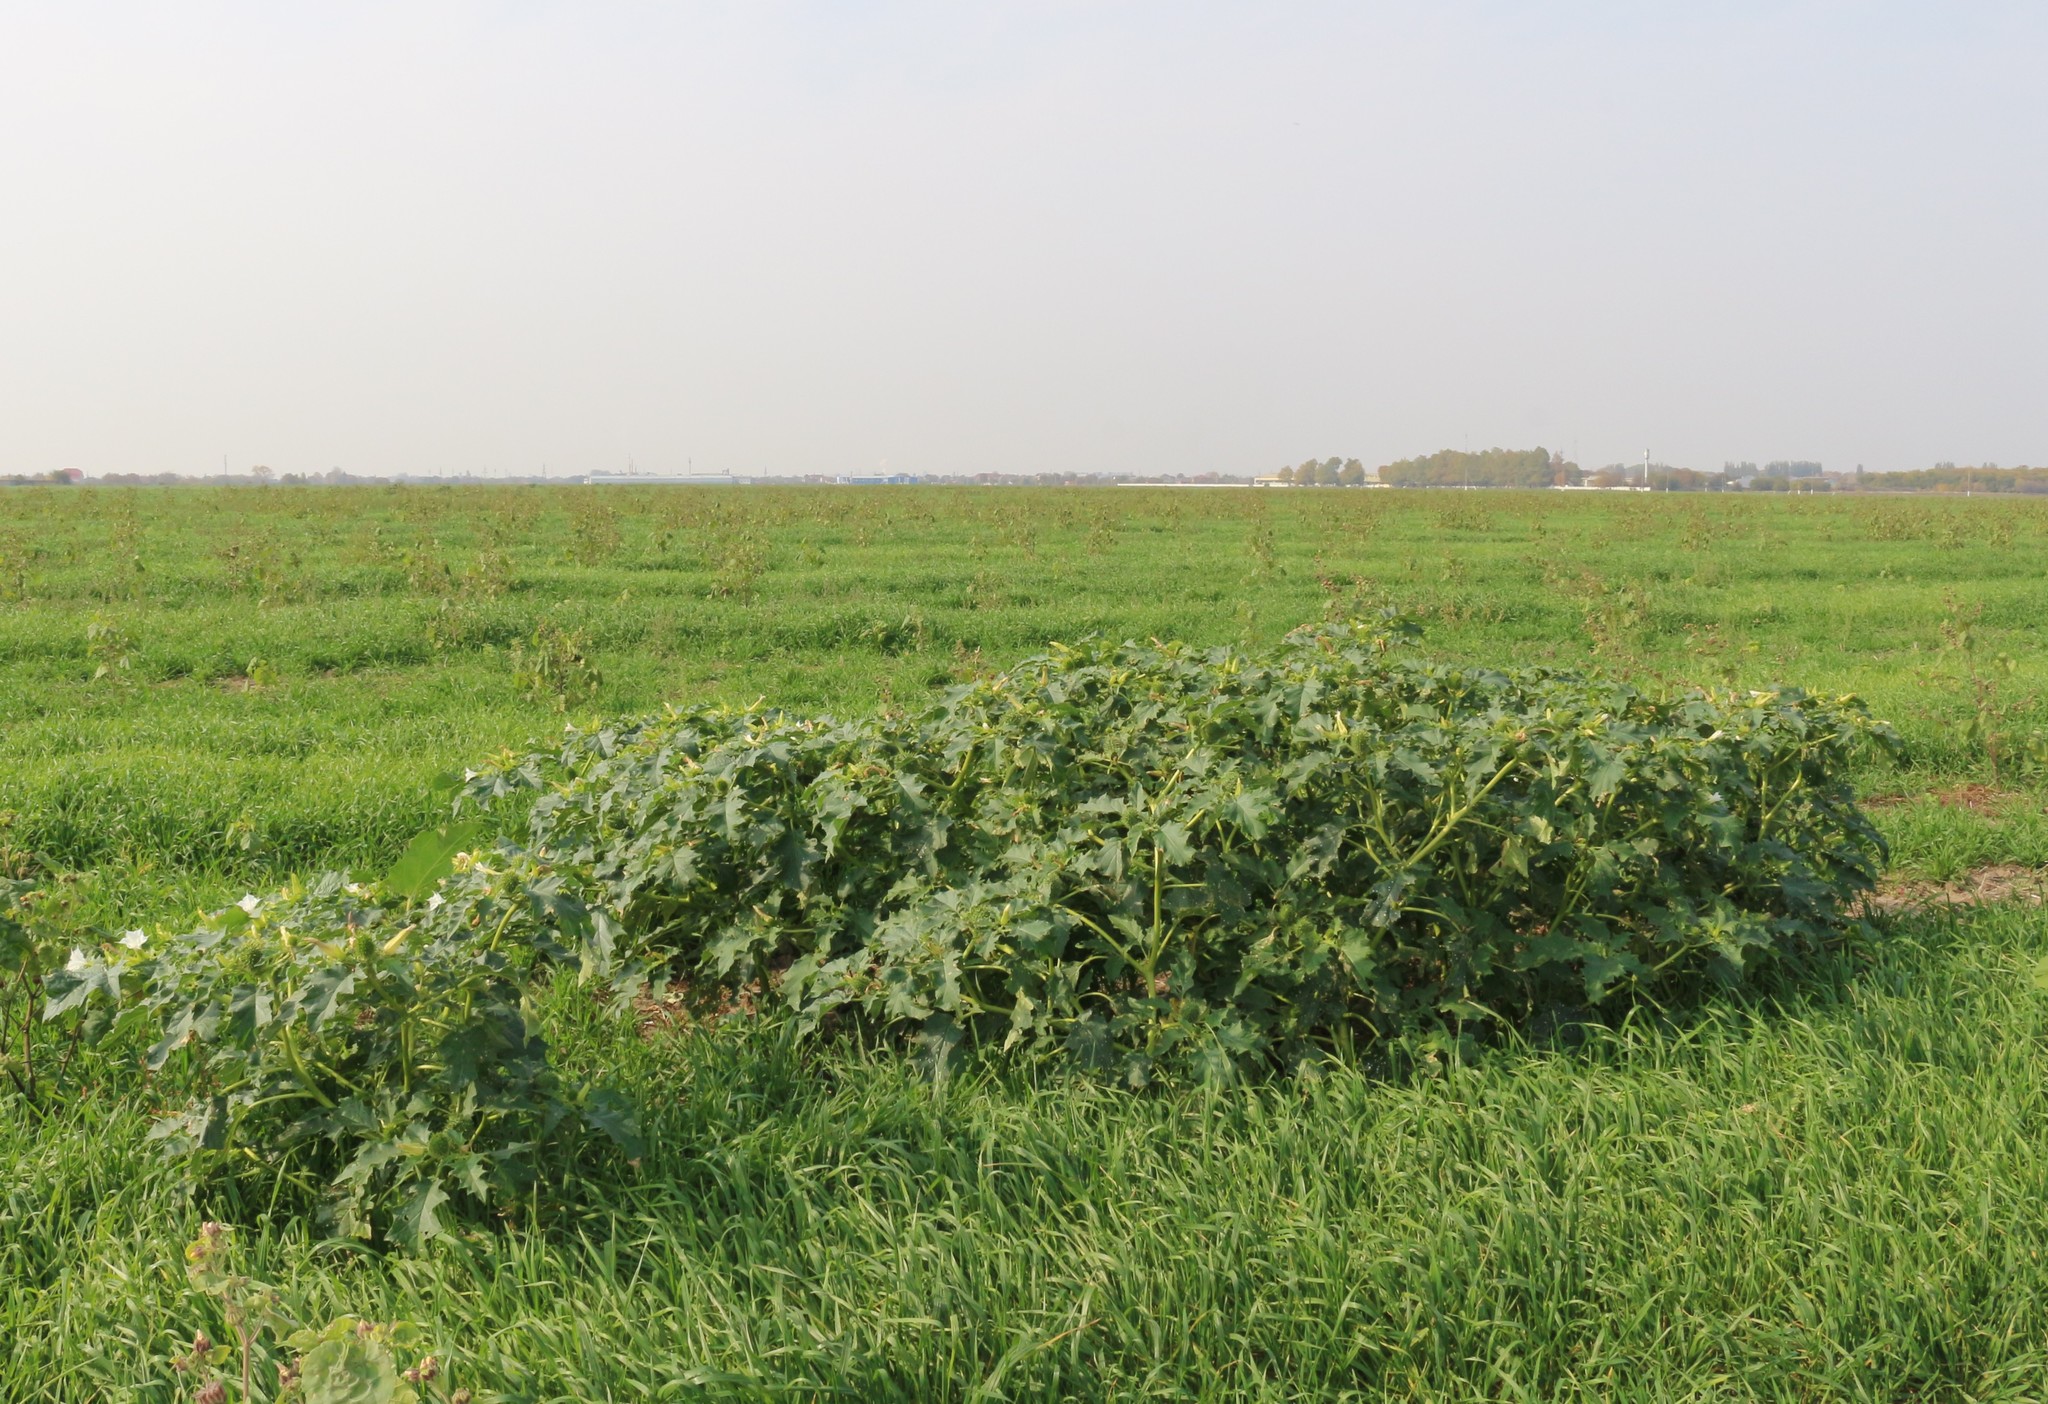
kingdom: Plantae
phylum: Tracheophyta
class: Magnoliopsida
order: Solanales
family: Solanaceae
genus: Datura
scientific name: Datura stramonium
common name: Thorn-apple
